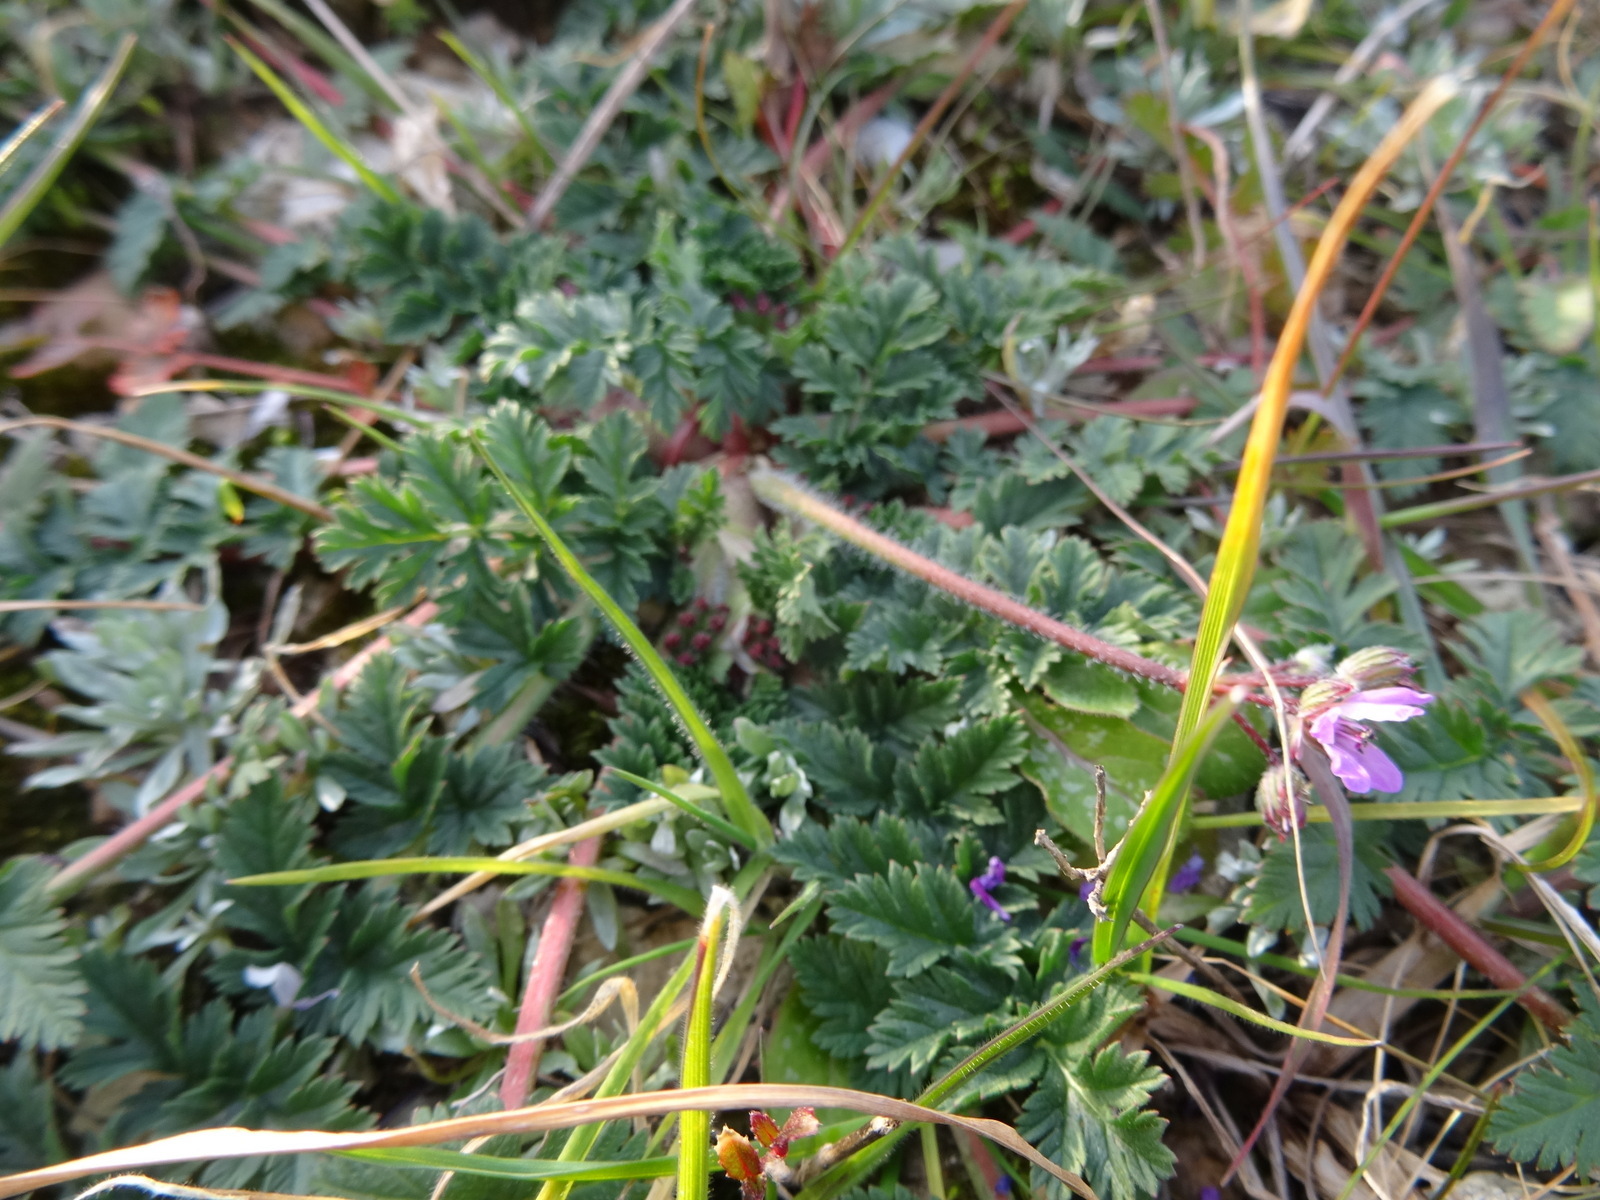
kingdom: Plantae
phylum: Tracheophyta
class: Magnoliopsida
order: Geraniales
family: Geraniaceae
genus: Erodium
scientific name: Erodium cicutarium
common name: Common stork's-bill
